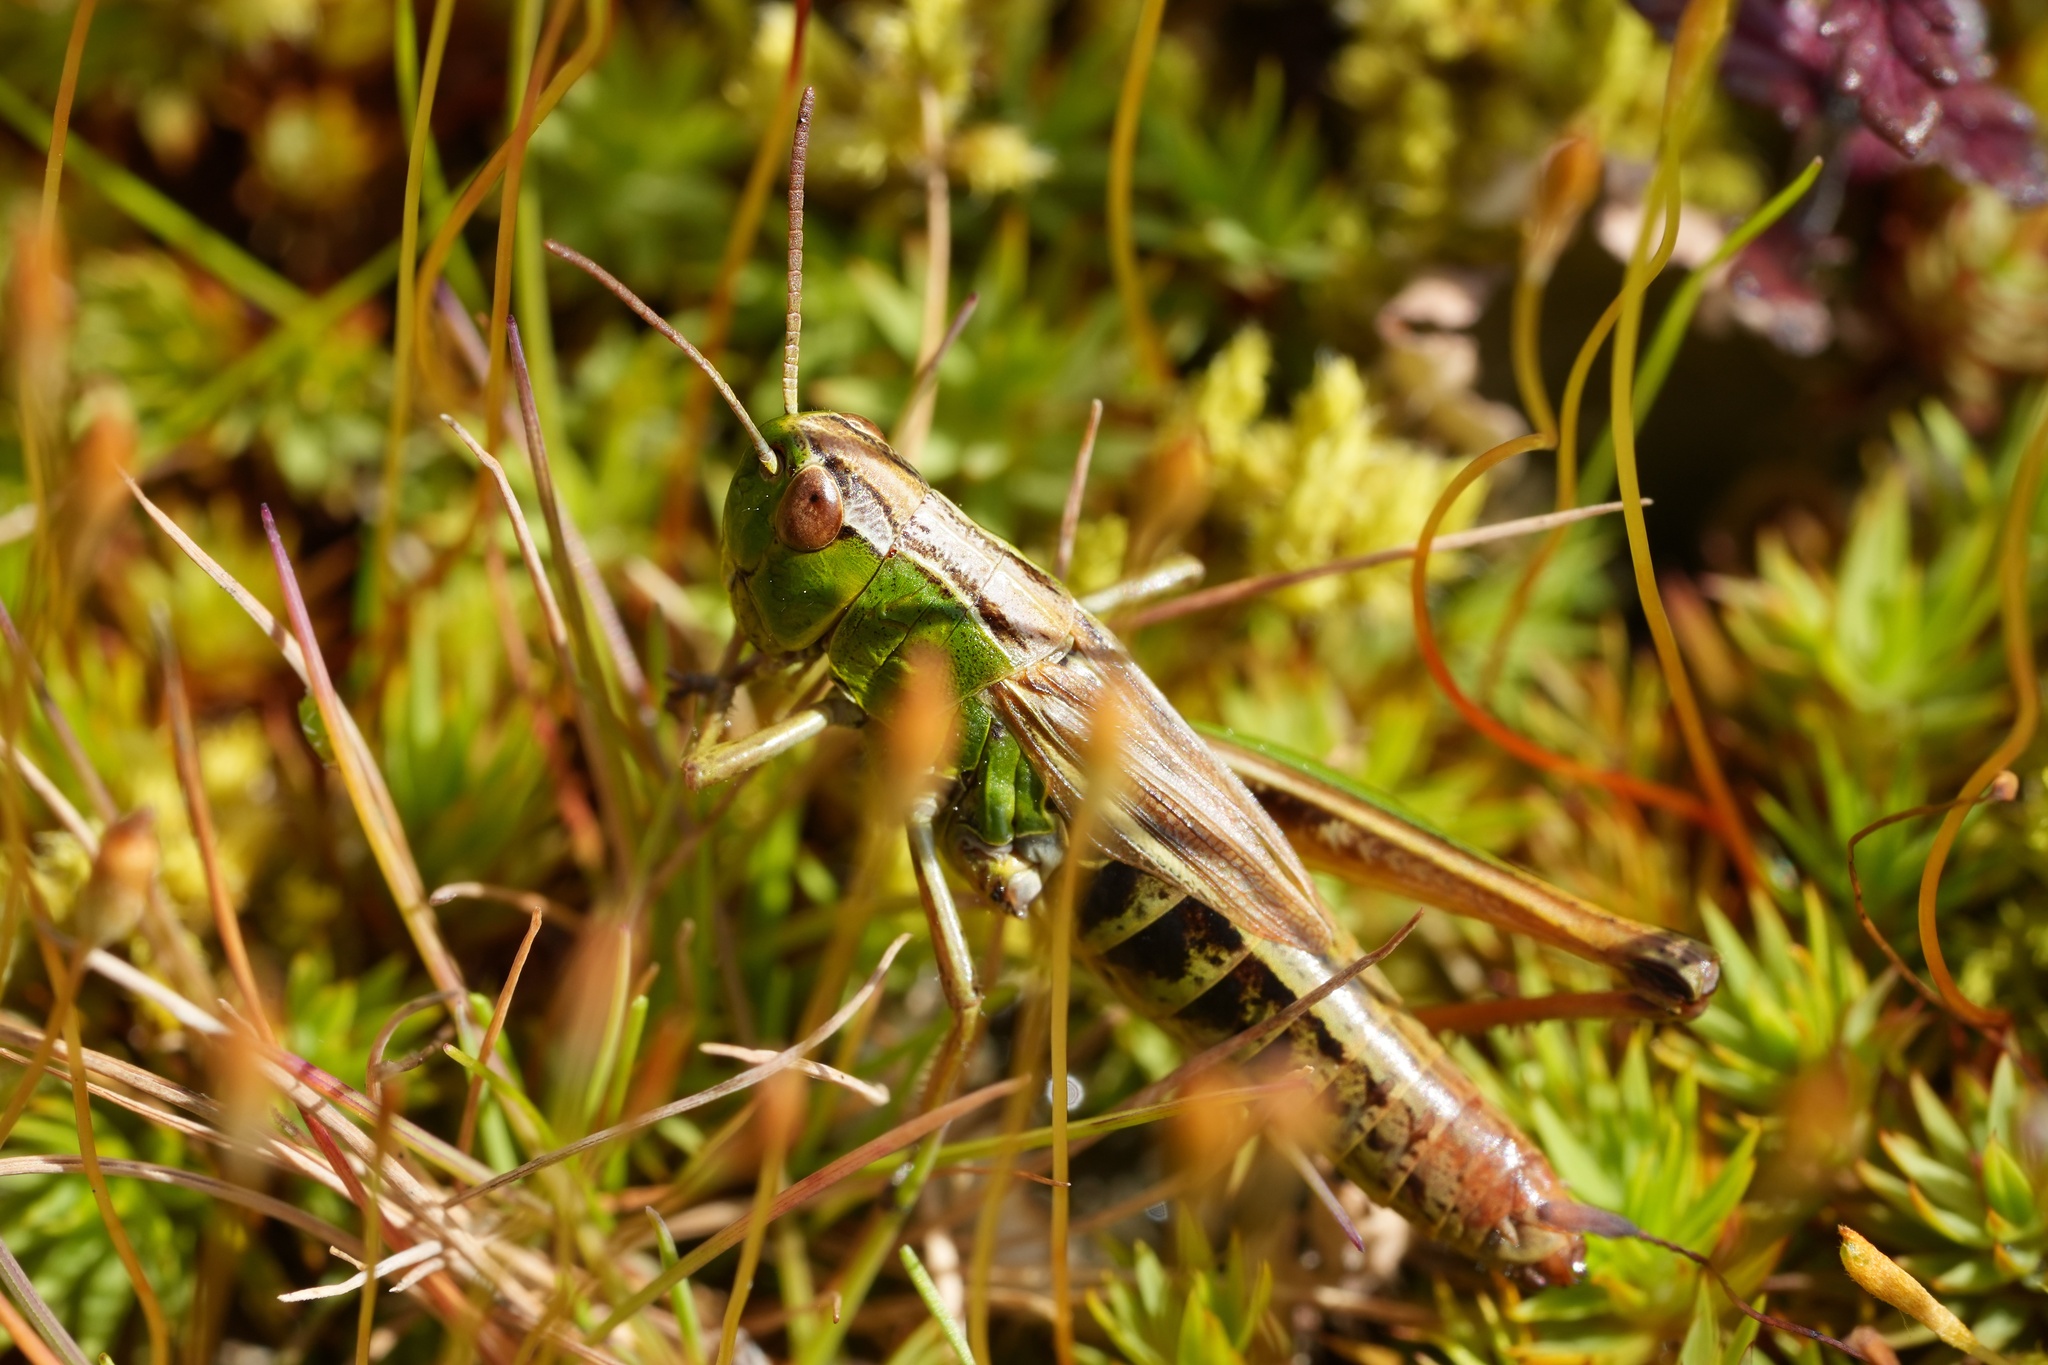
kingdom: Animalia
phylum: Arthropoda
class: Insecta
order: Orthoptera
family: Acrididae
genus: Pseudochorthippus
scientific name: Pseudochorthippus parallelus
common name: Meadow grasshopper
